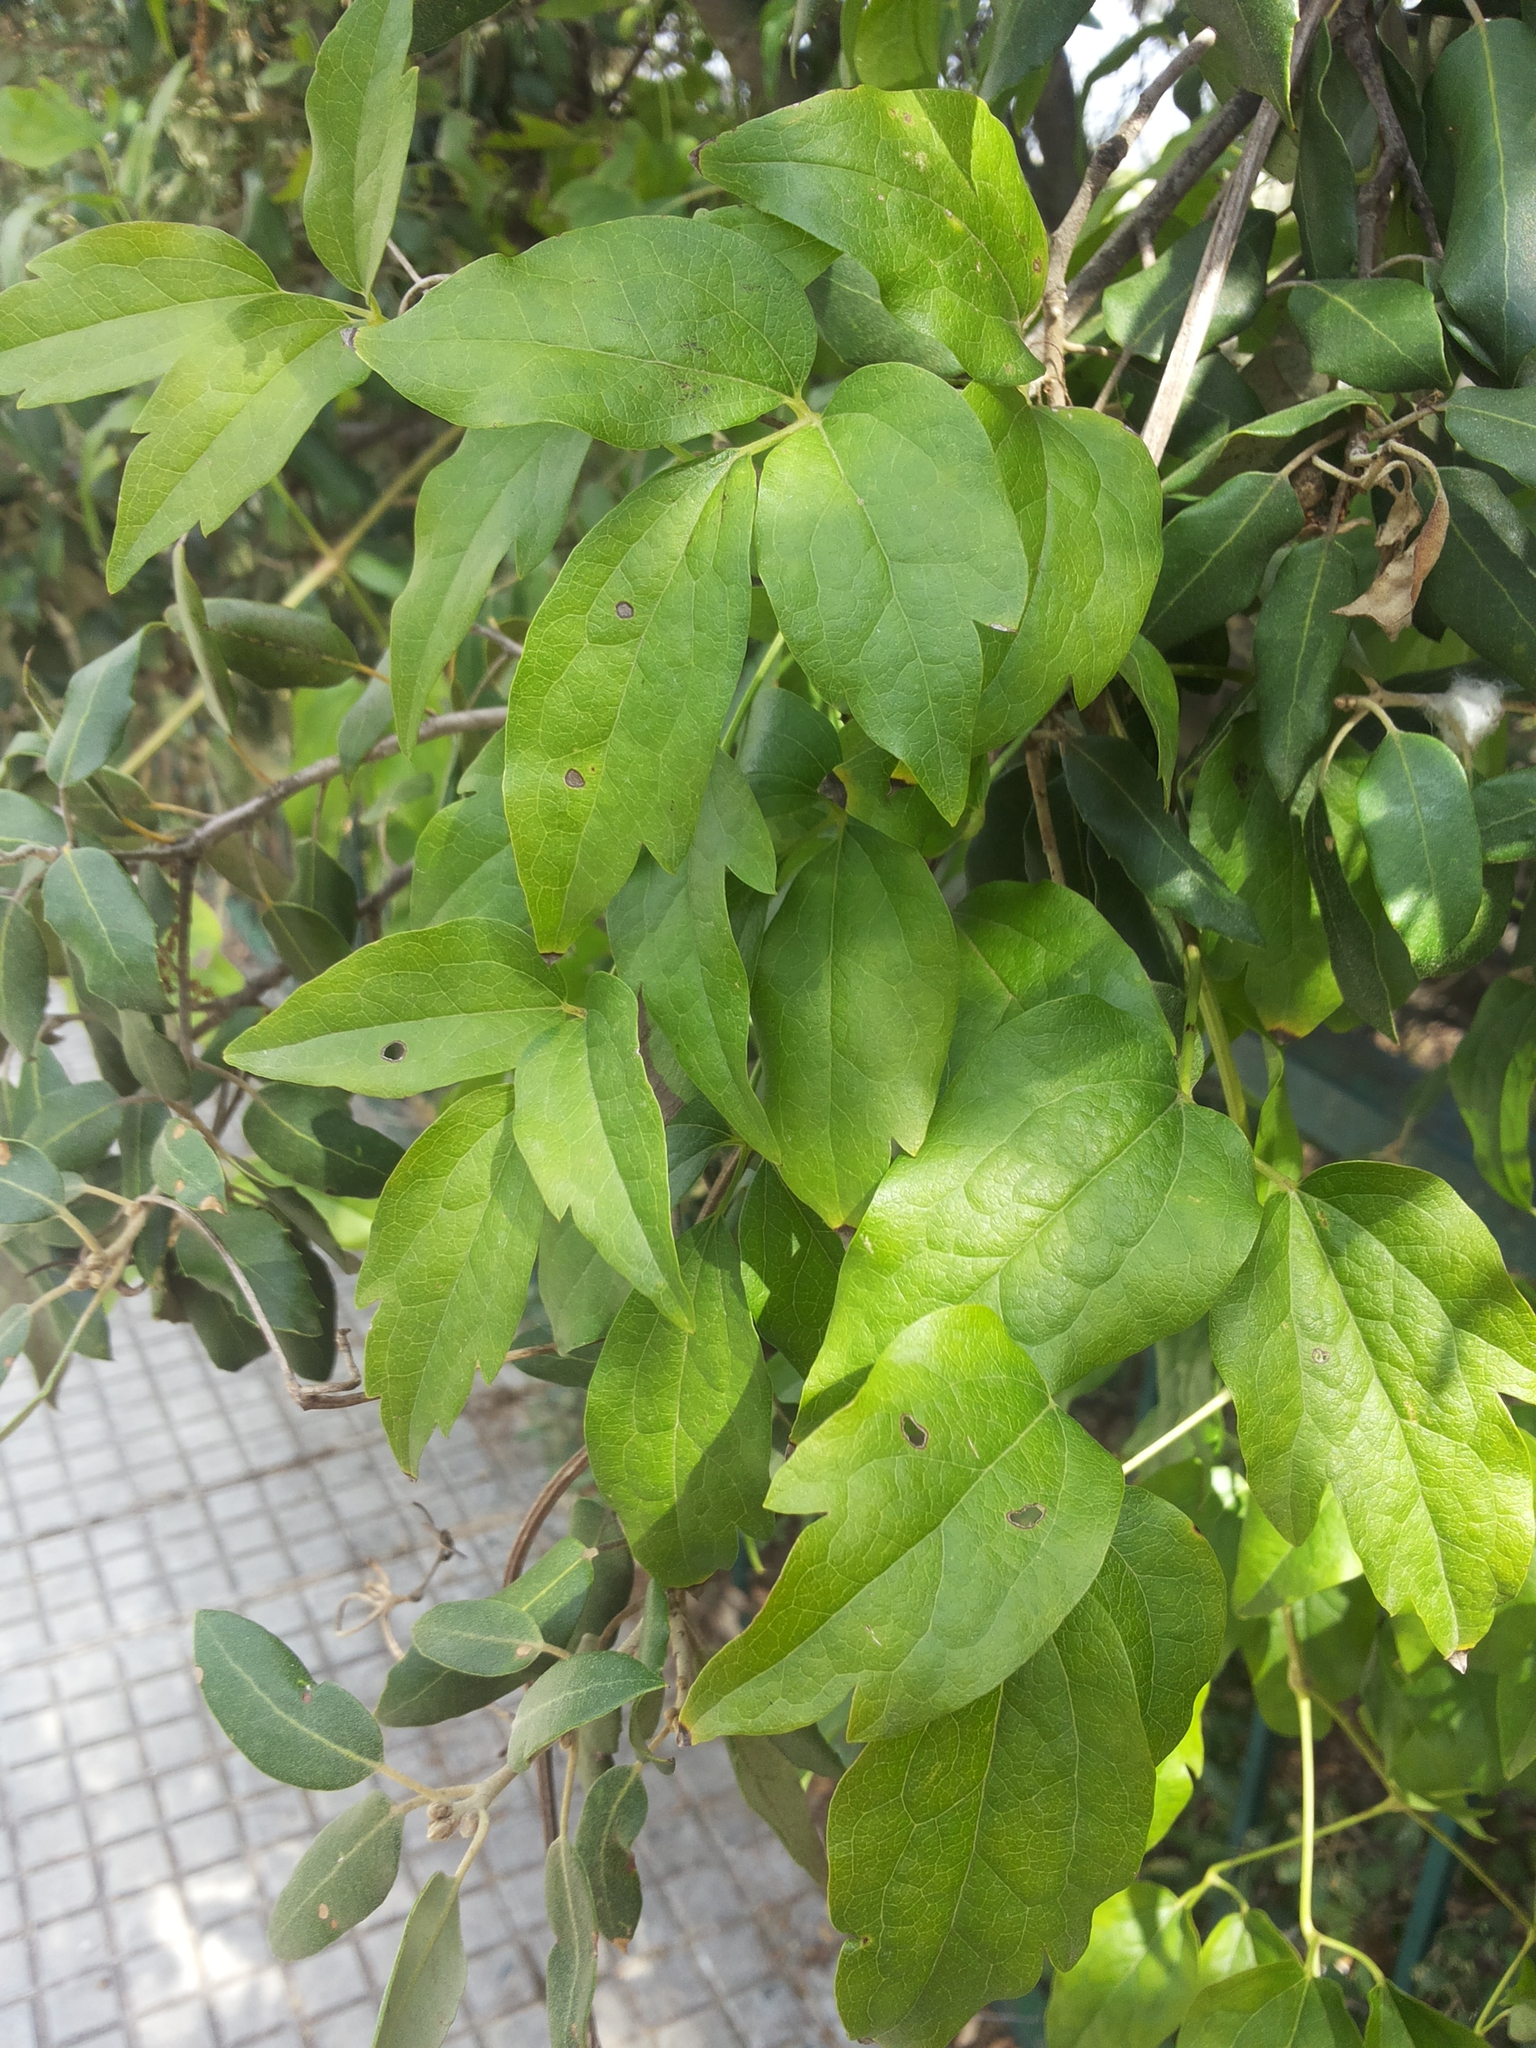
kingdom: Plantae
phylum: Tracheophyta
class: Magnoliopsida
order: Ranunculales
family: Ranunculaceae
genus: Clematis
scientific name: Clematis vitalba
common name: Evergreen clematis
